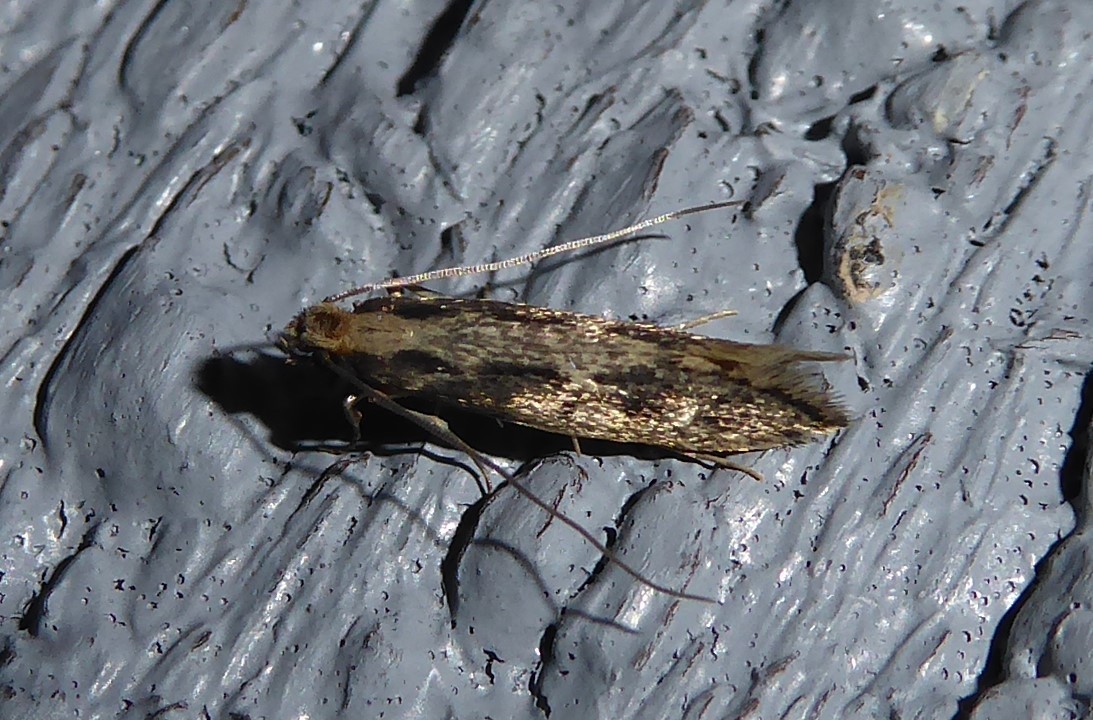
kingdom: Animalia
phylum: Arthropoda
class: Insecta
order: Lepidoptera
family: Tineidae
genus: Tinea
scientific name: Tinea pallescentella
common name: Large pale clothes moth
